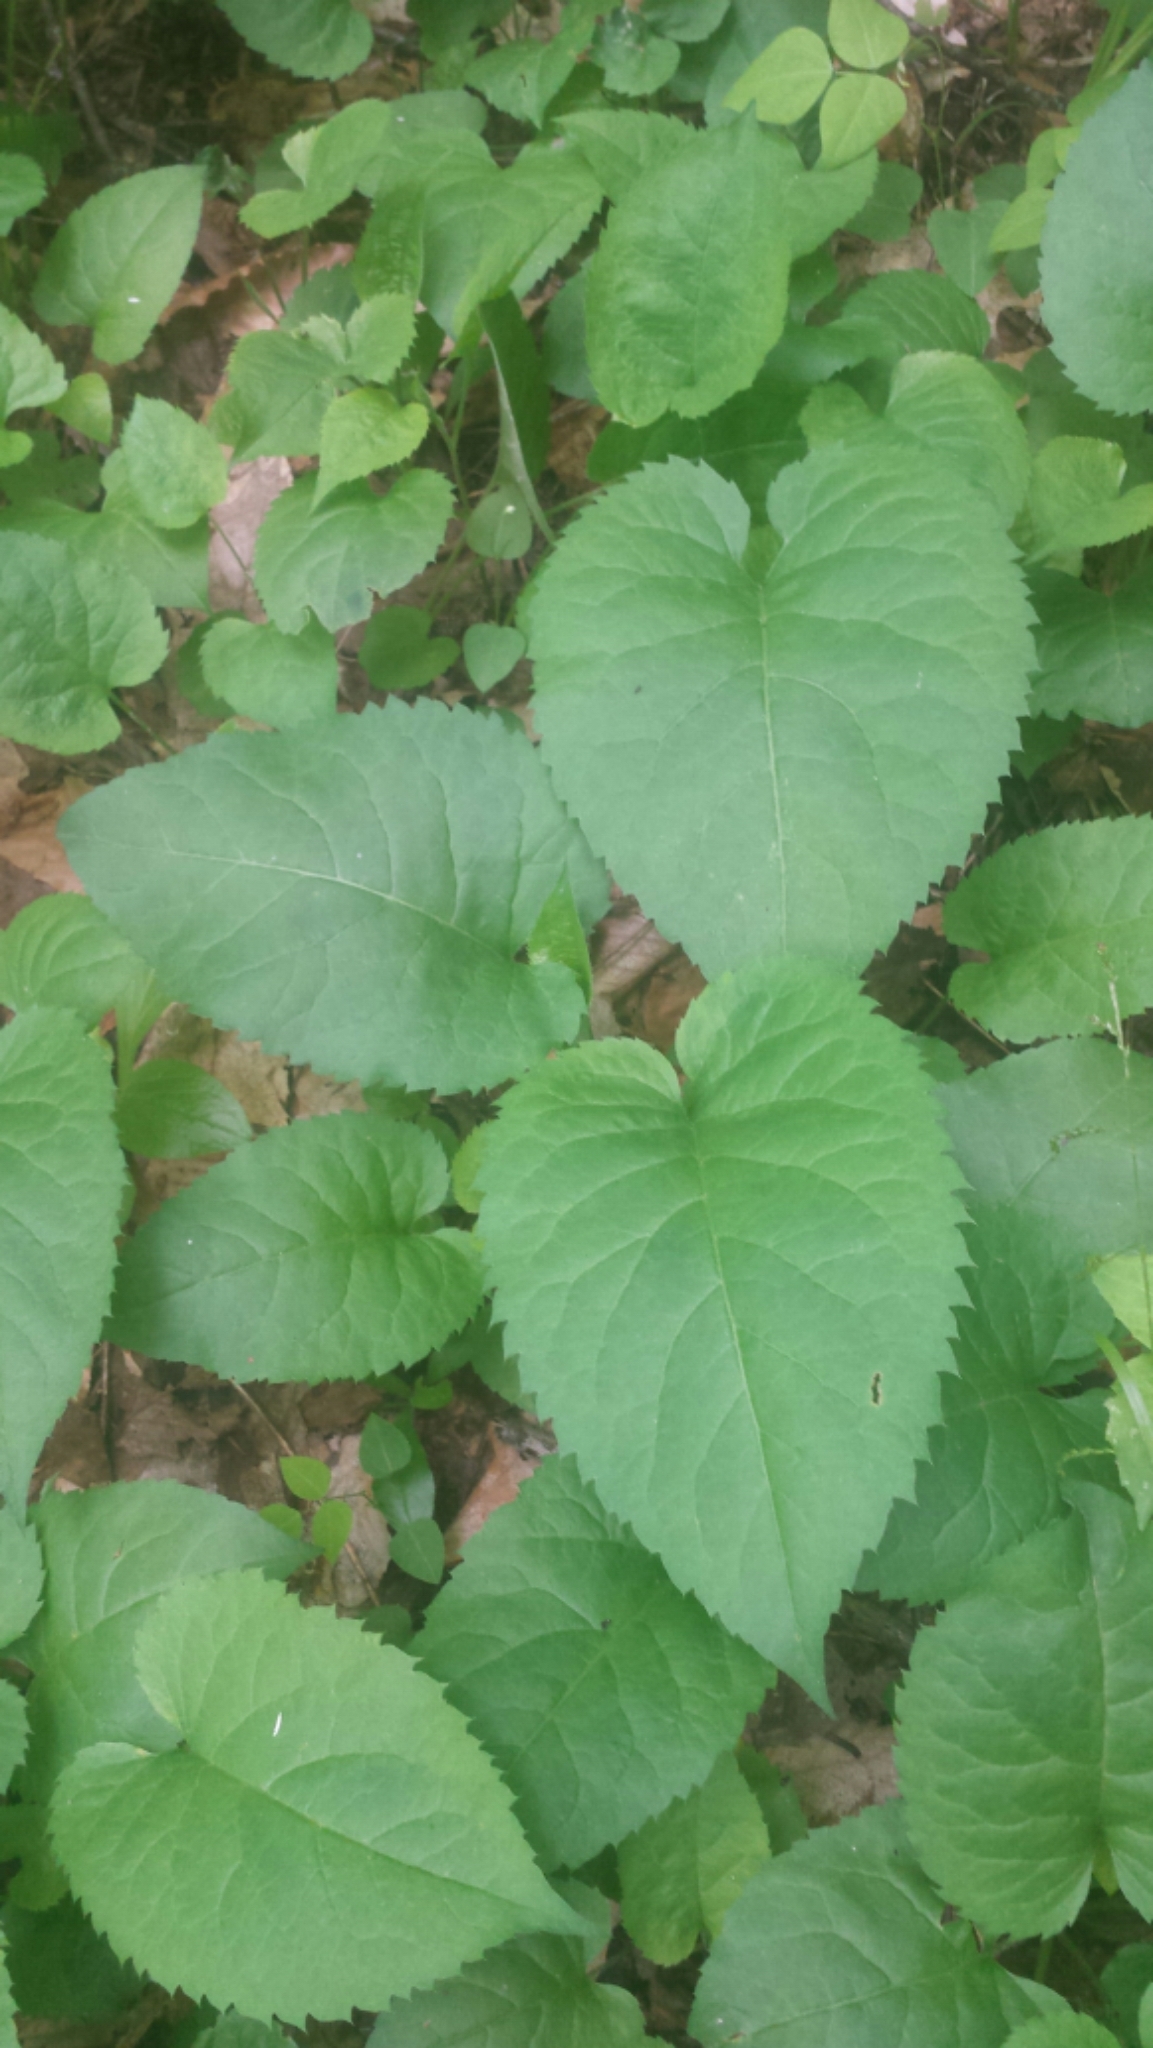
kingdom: Plantae
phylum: Tracheophyta
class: Magnoliopsida
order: Asterales
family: Asteraceae
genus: Eurybia
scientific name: Eurybia macrophylla
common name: Big-leaved aster
